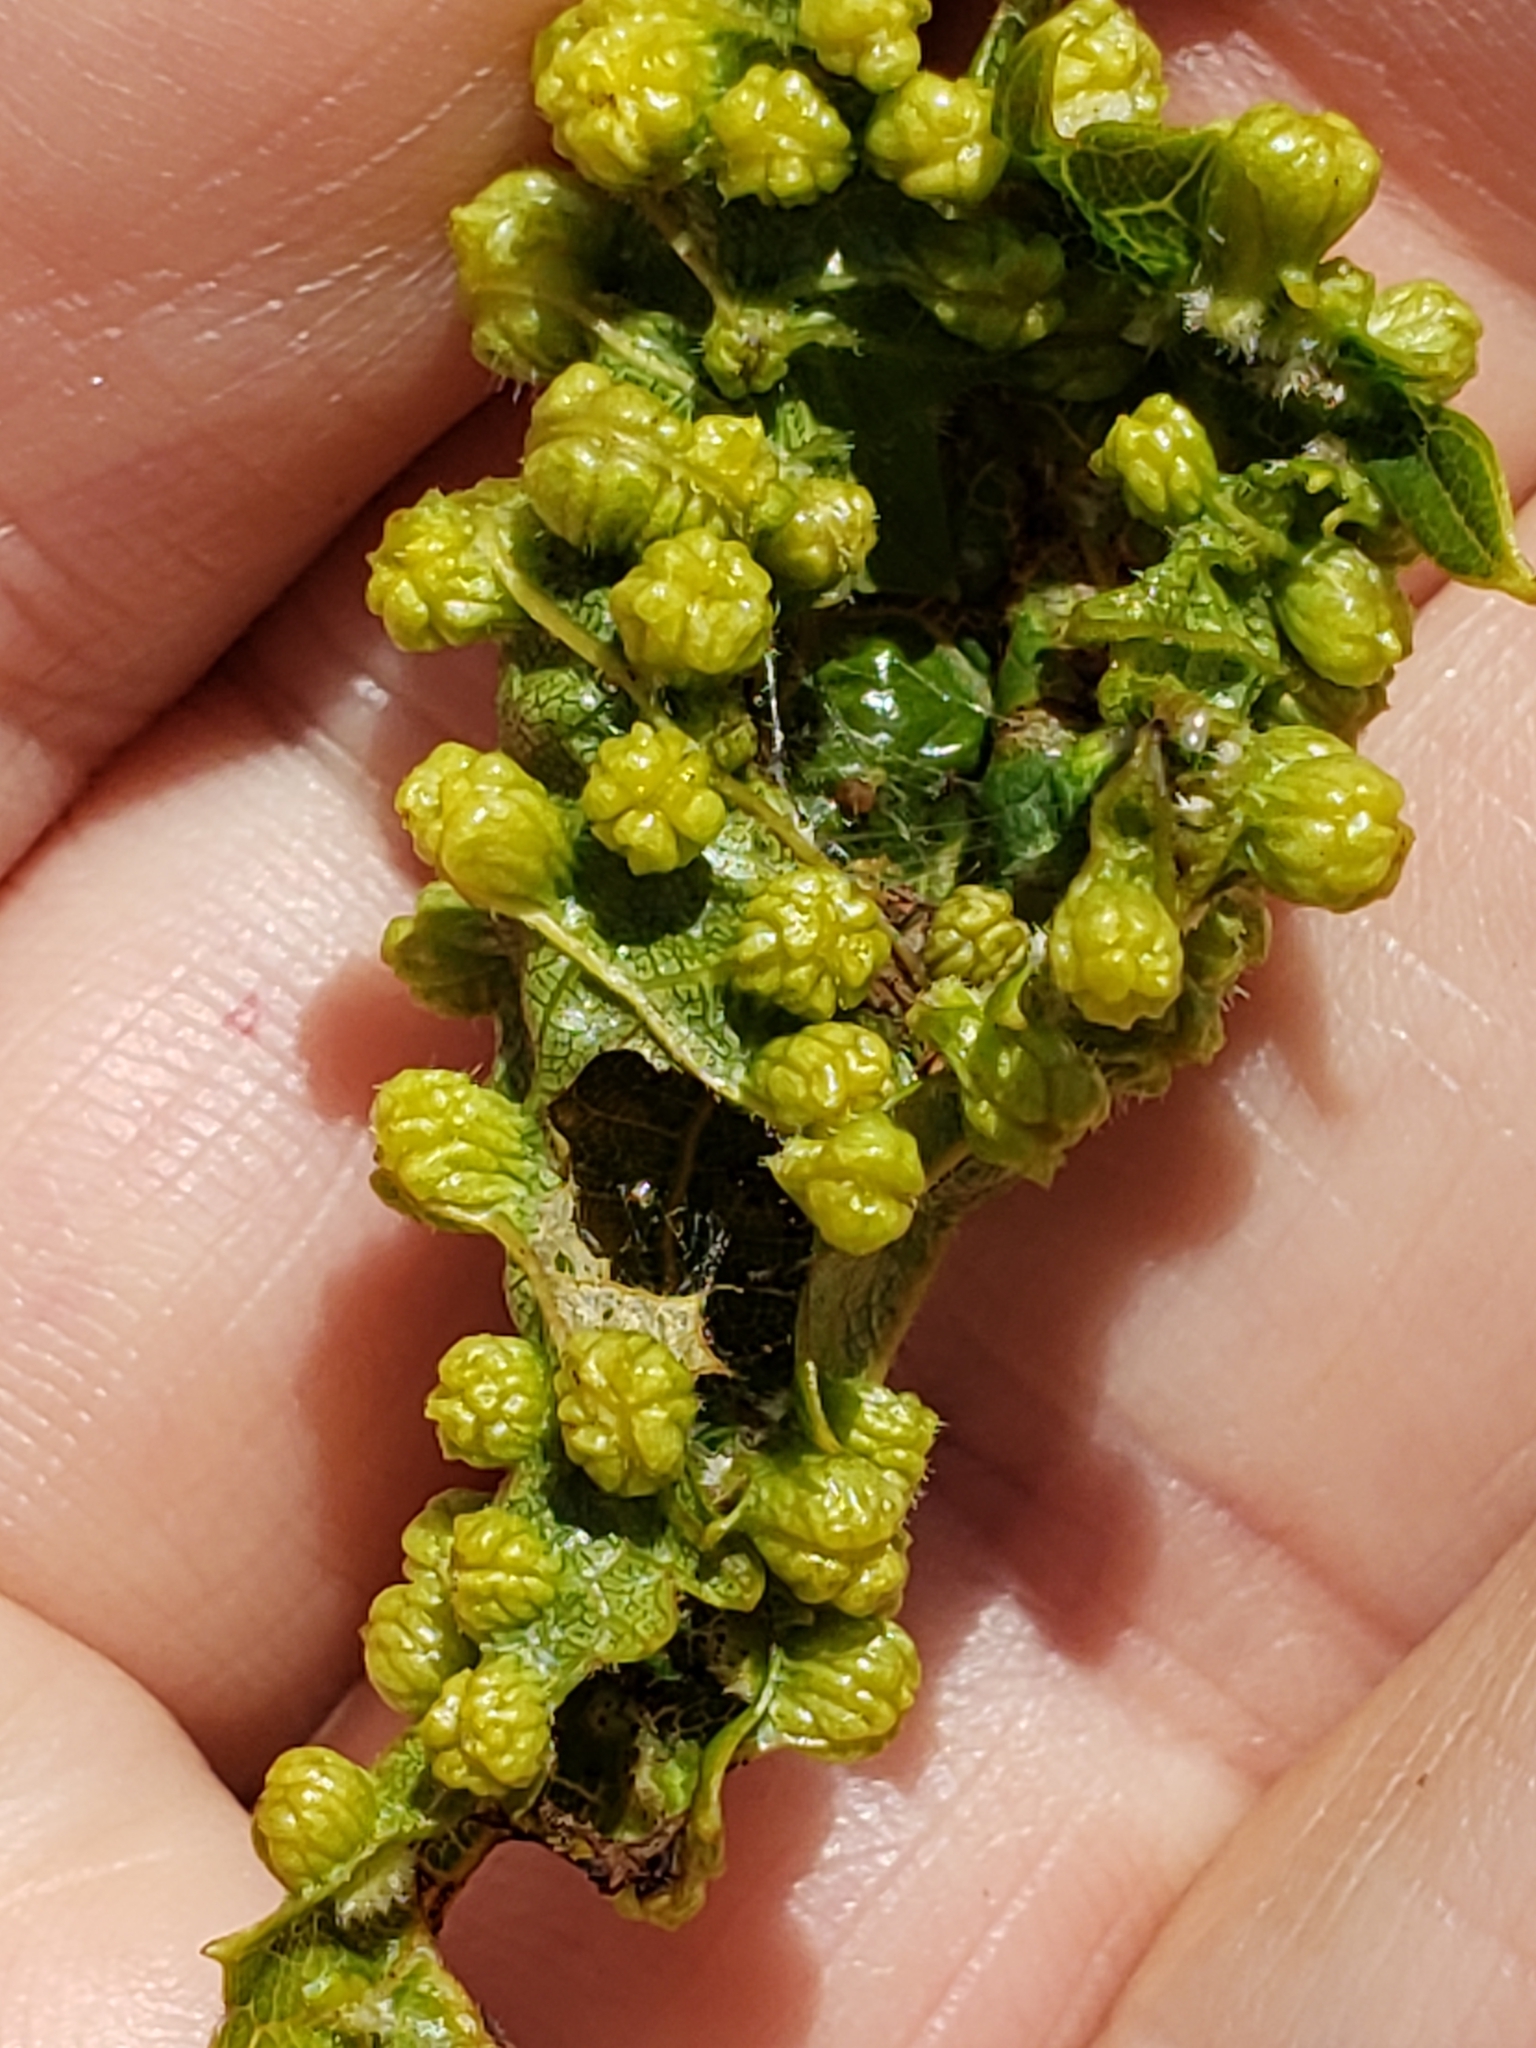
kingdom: Animalia
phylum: Arthropoda
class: Insecta
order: Hemiptera
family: Phylloxeridae
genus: Daktulosphaira
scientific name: Daktulosphaira vitifoliae
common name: Grape phylloxera
